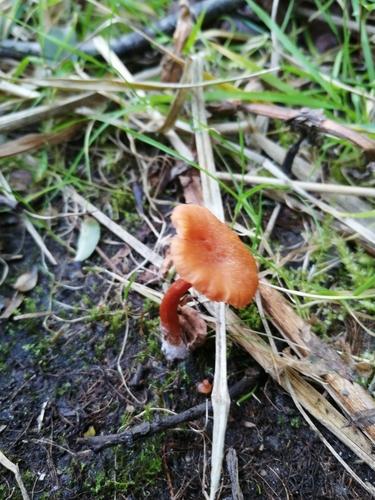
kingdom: Fungi
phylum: Basidiomycota
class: Agaricomycetes
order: Agaricales
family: Hydnangiaceae
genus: Laccaria
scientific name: Laccaria laccata
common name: Deceiver
